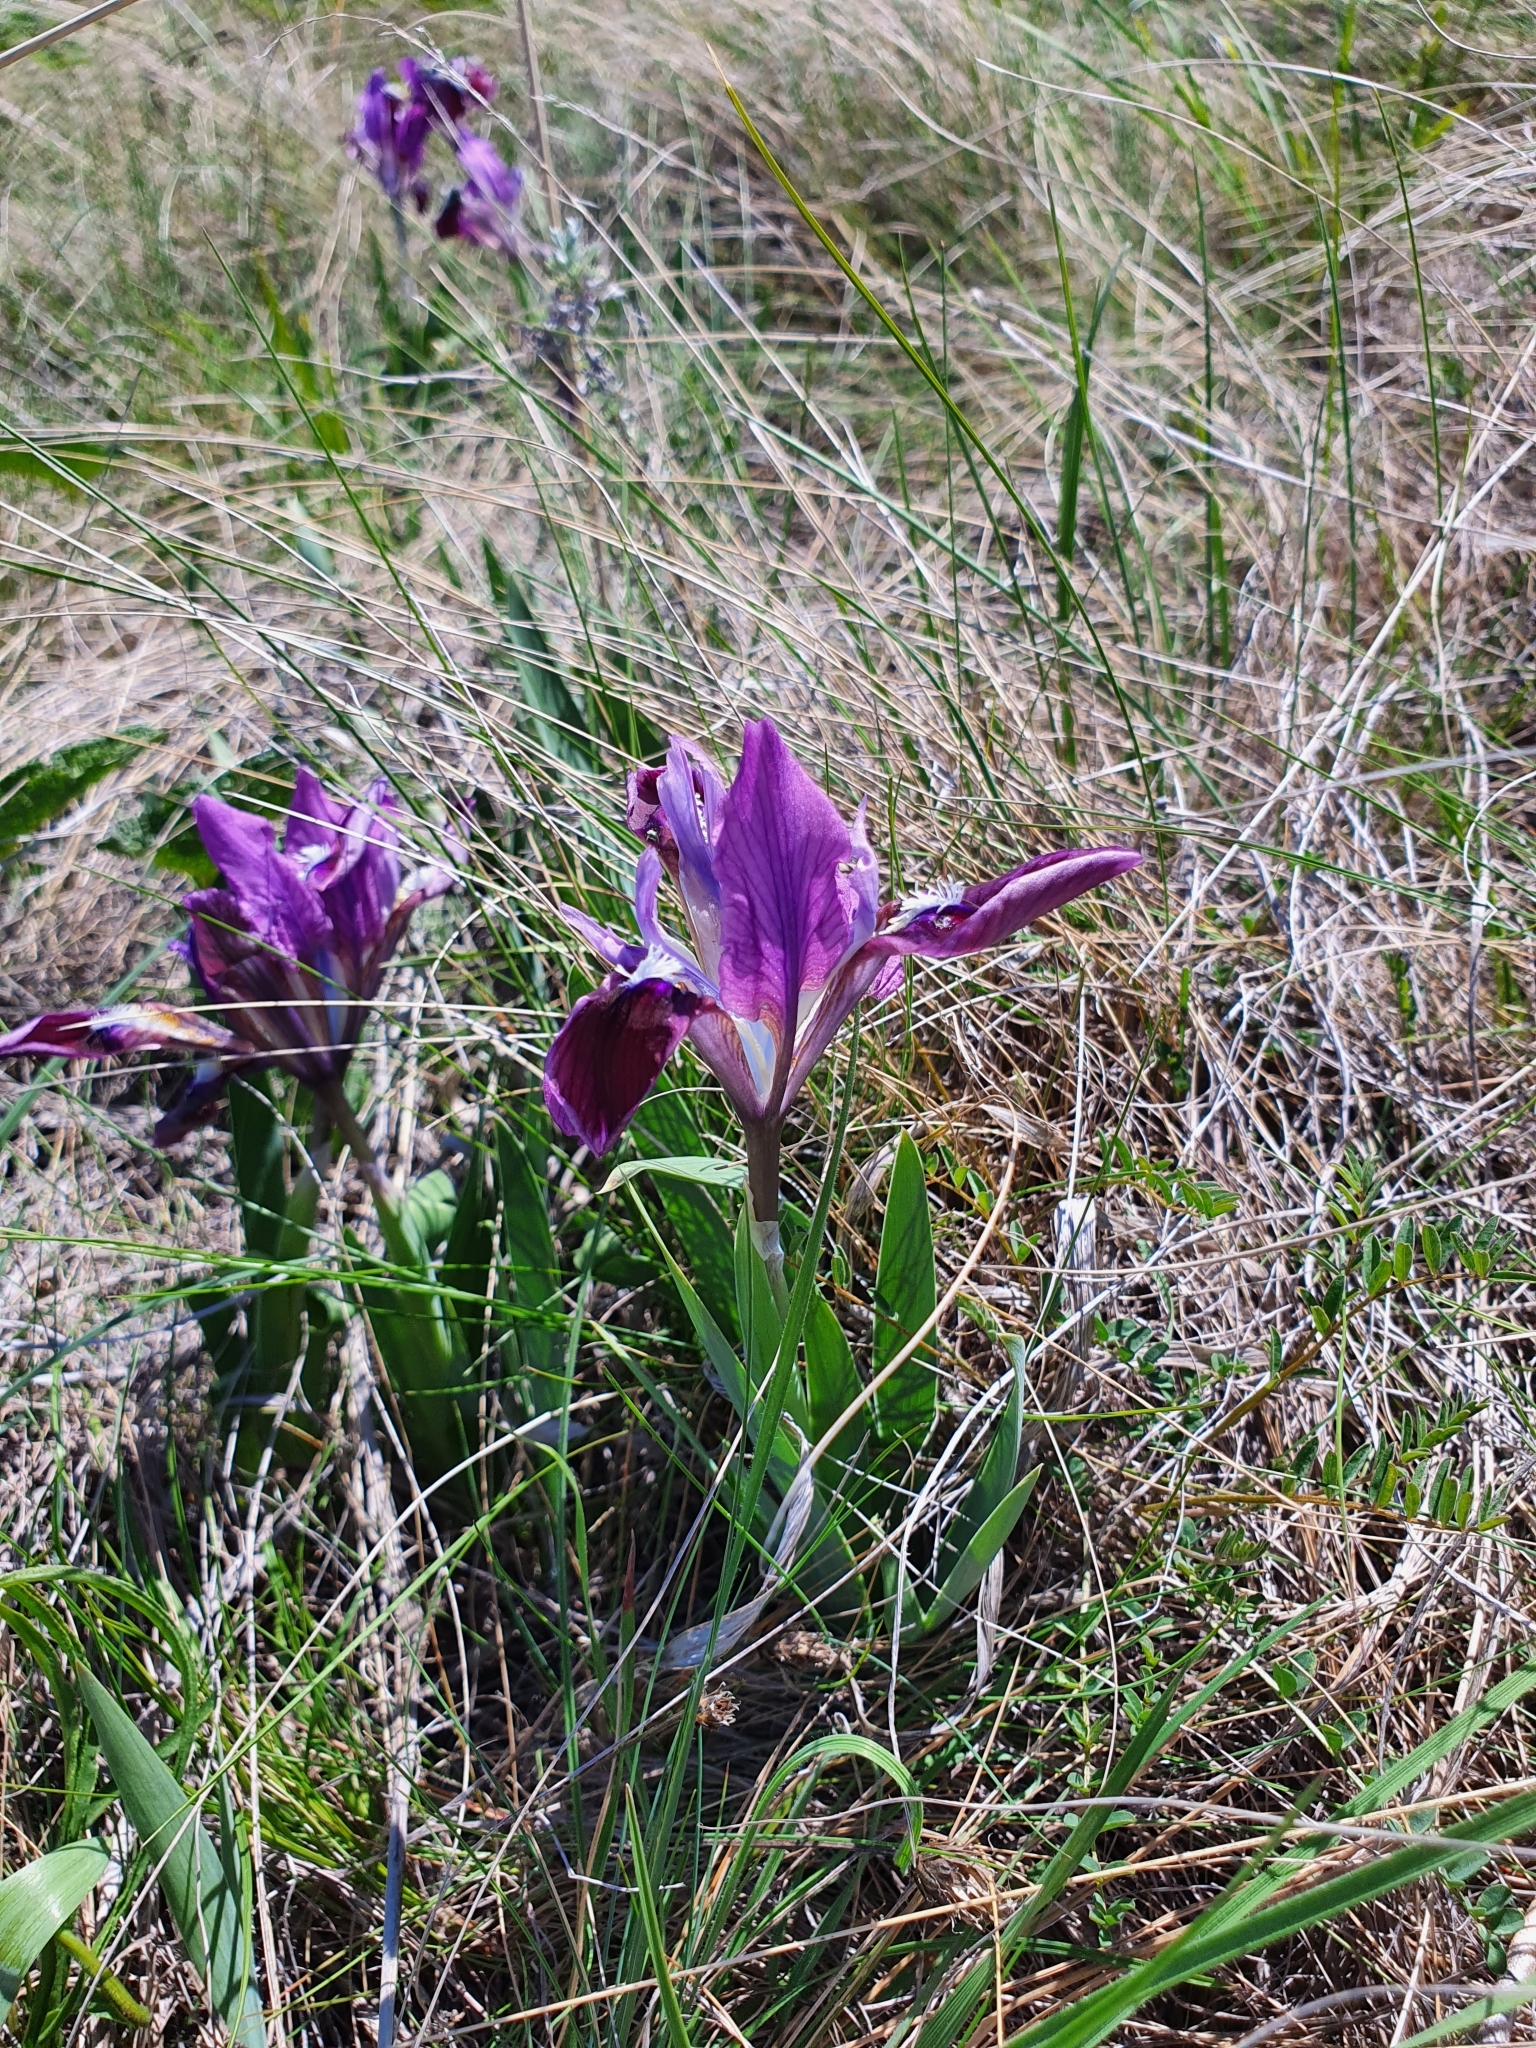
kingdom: Plantae
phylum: Tracheophyta
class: Liliopsida
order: Asparagales
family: Iridaceae
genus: Iris
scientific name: Iris pumila
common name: Dwarf iris
